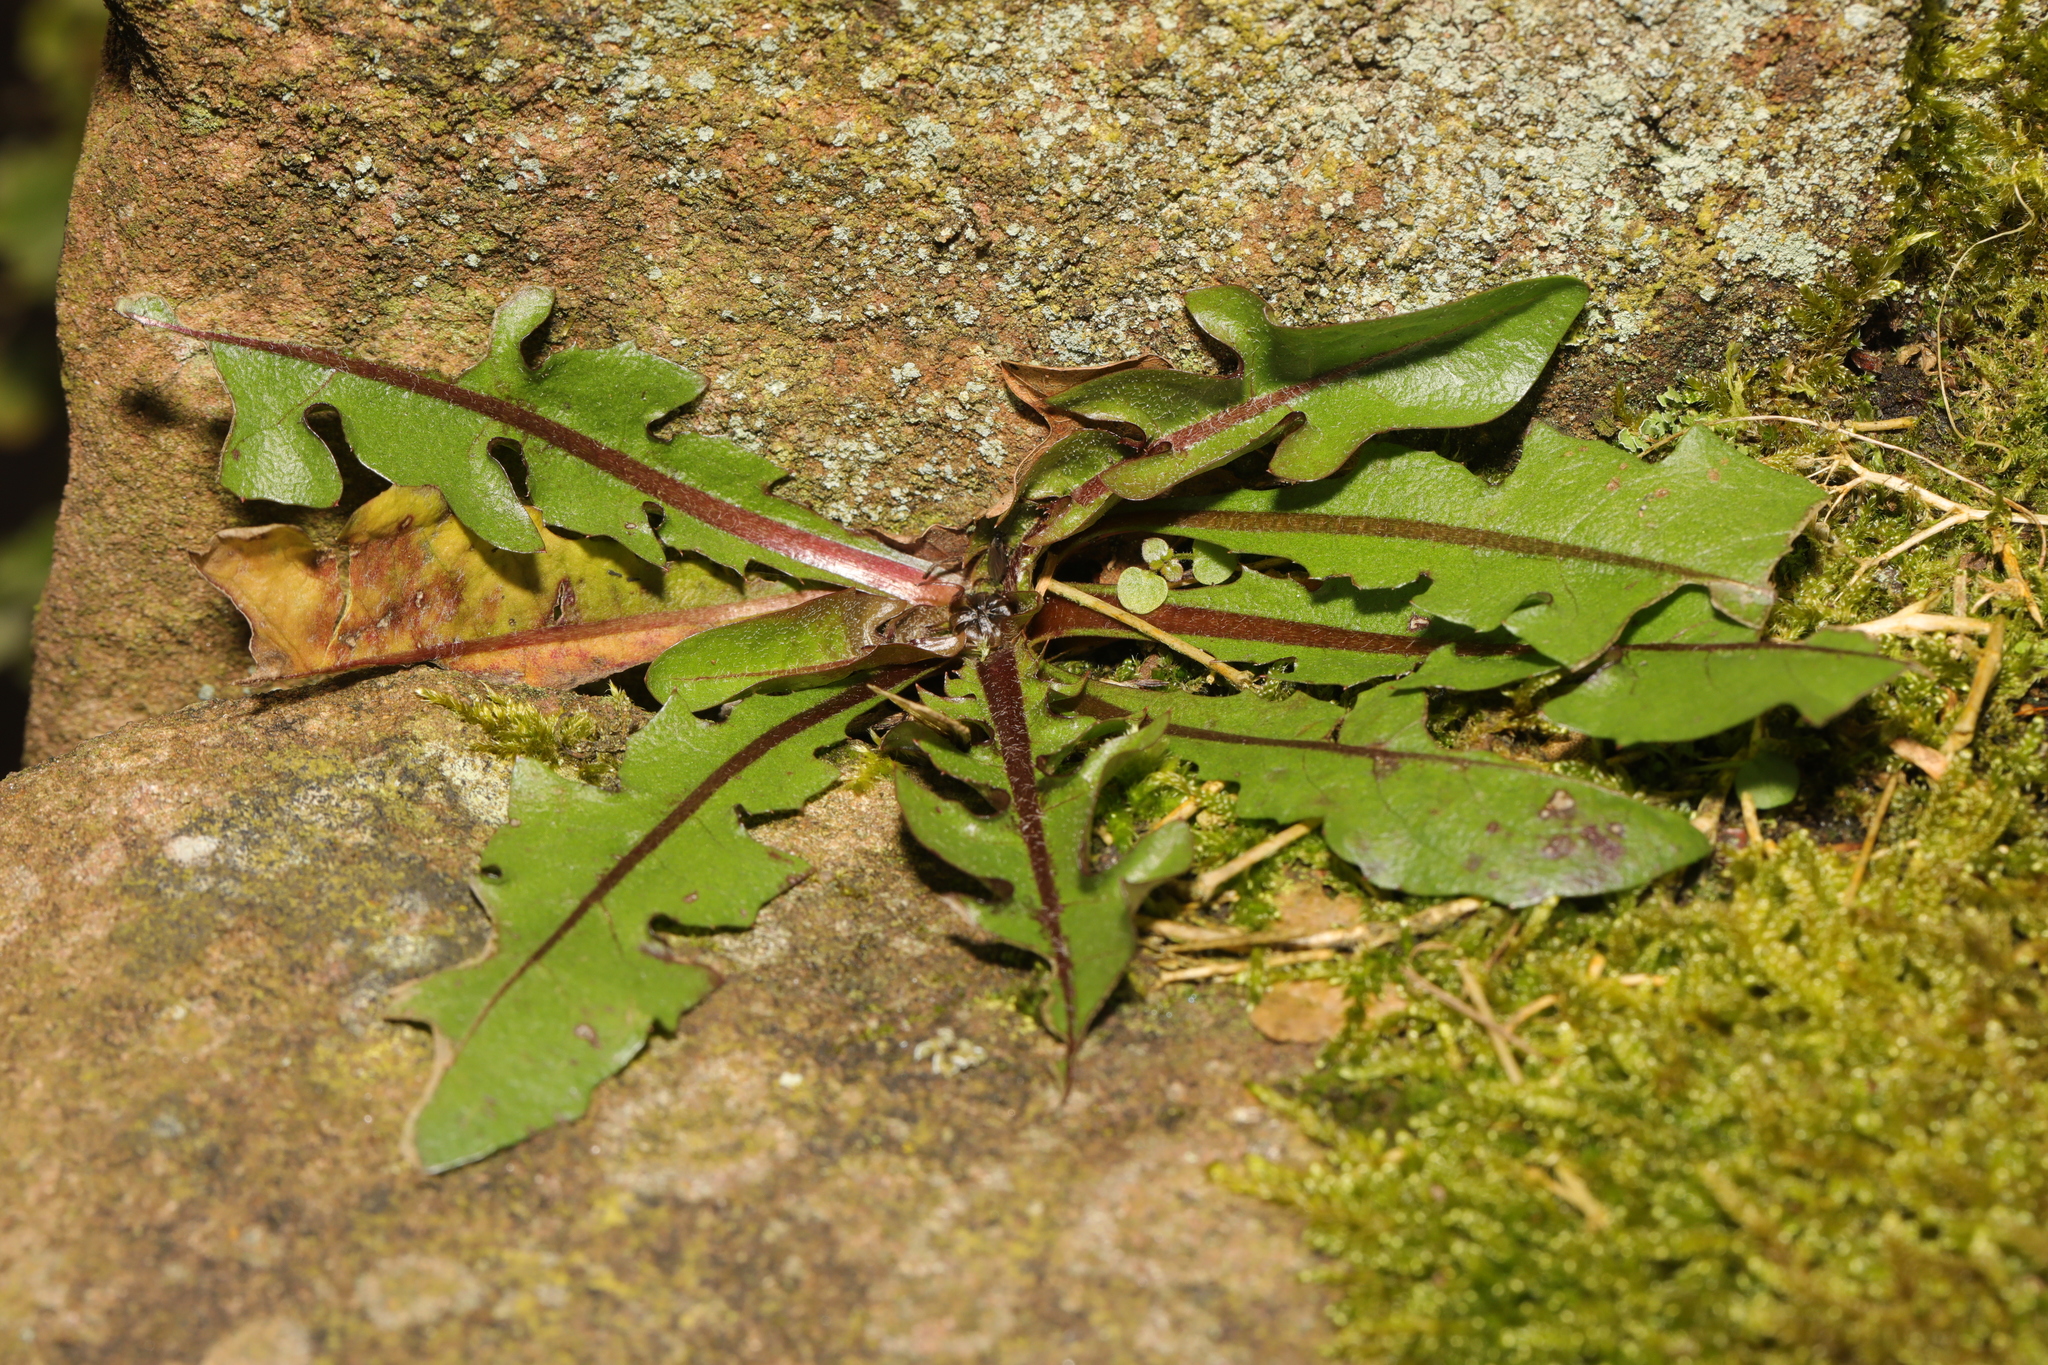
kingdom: Plantae
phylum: Tracheophyta
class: Magnoliopsida
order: Asterales
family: Asteraceae
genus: Taraxacum
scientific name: Taraxacum officinale
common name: Common dandelion
